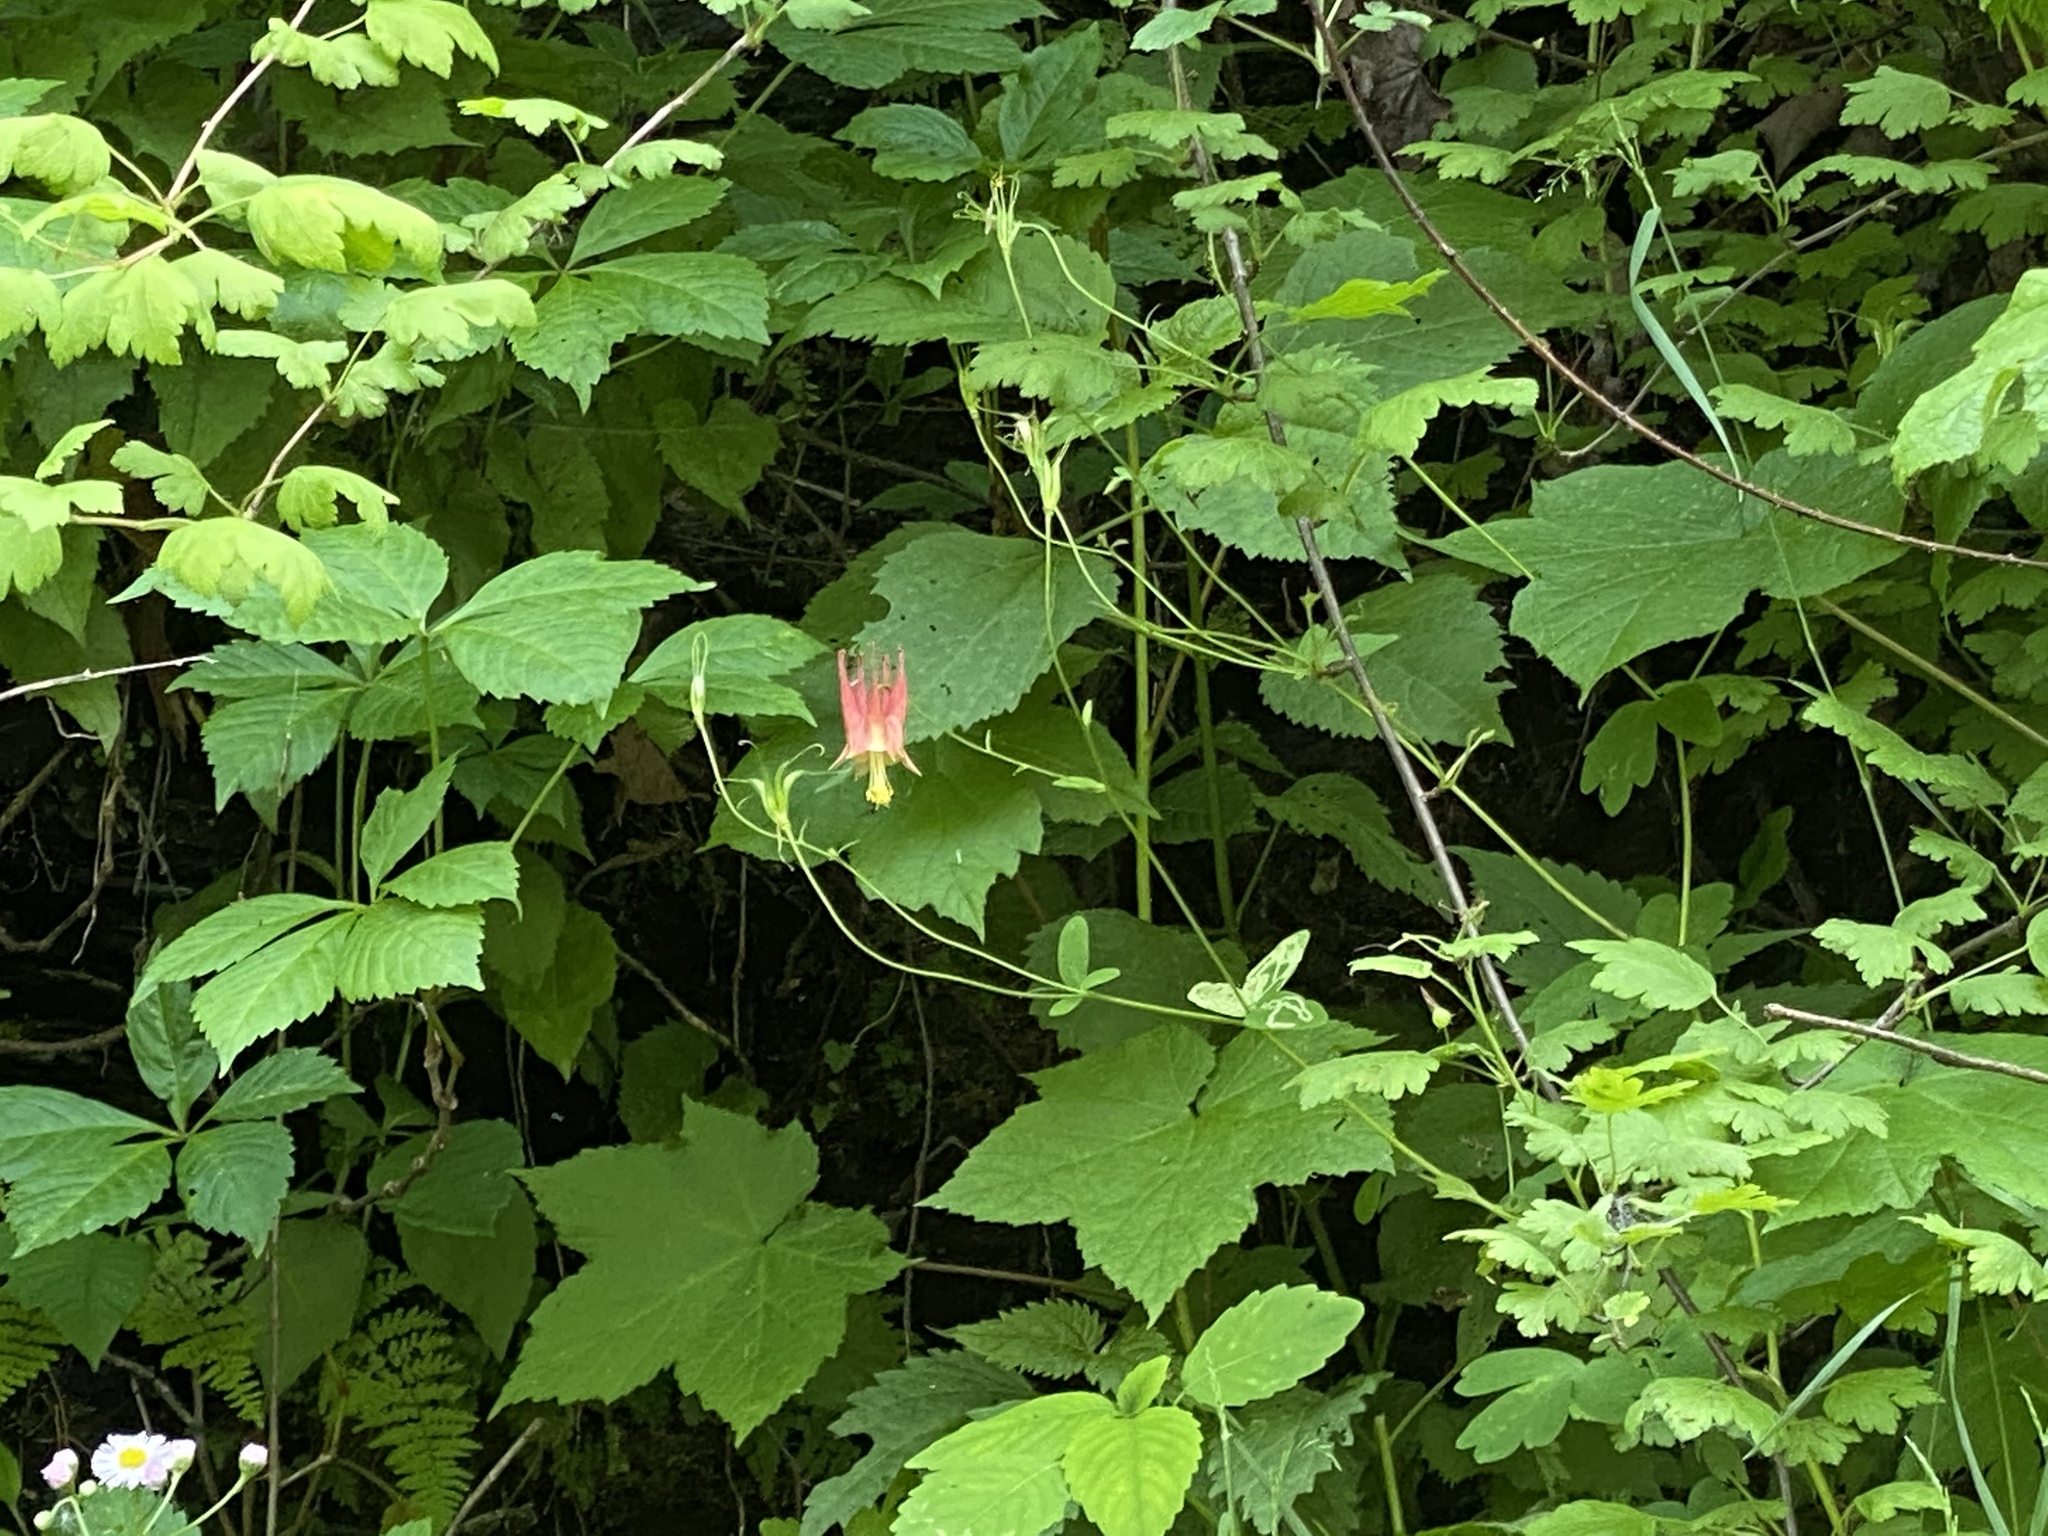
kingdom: Plantae
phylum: Tracheophyta
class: Magnoliopsida
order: Ranunculales
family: Ranunculaceae
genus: Aquilegia
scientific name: Aquilegia canadensis
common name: American columbine
